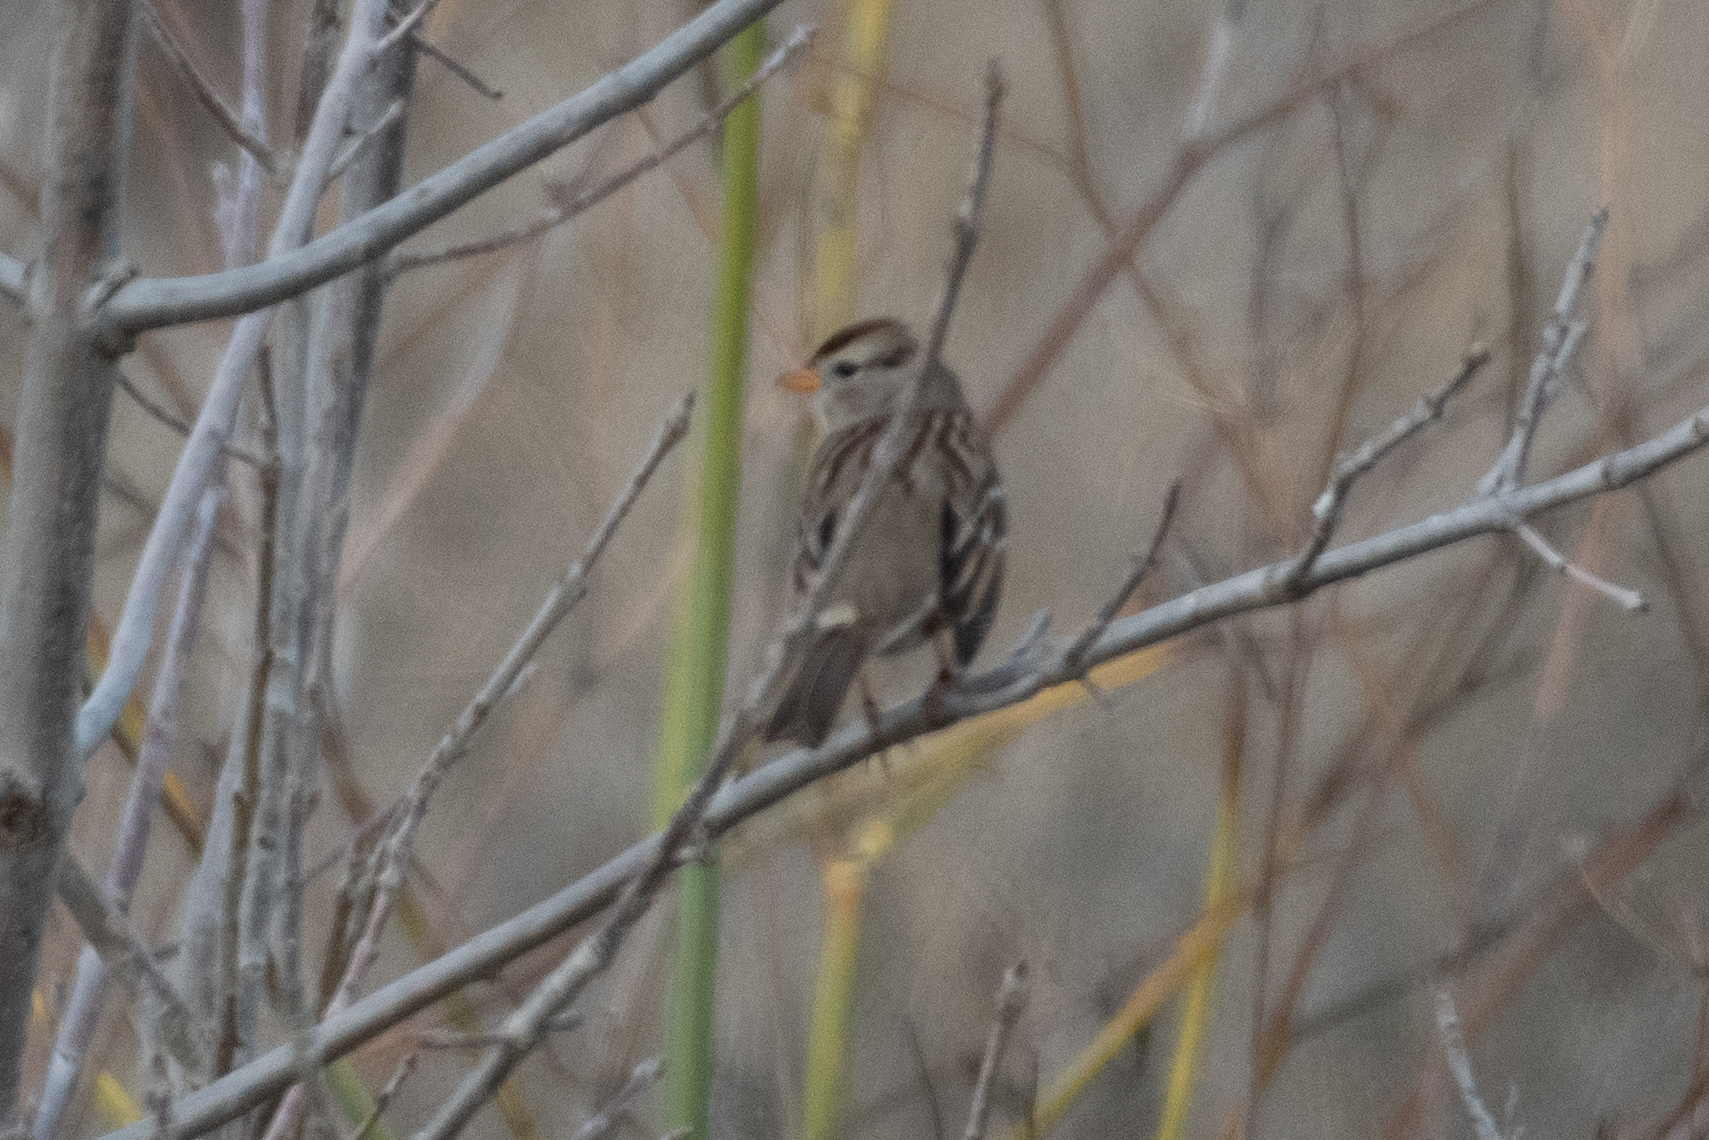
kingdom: Animalia
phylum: Chordata
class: Aves
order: Passeriformes
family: Passerellidae
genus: Zonotrichia
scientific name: Zonotrichia leucophrys
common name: White-crowned sparrow
